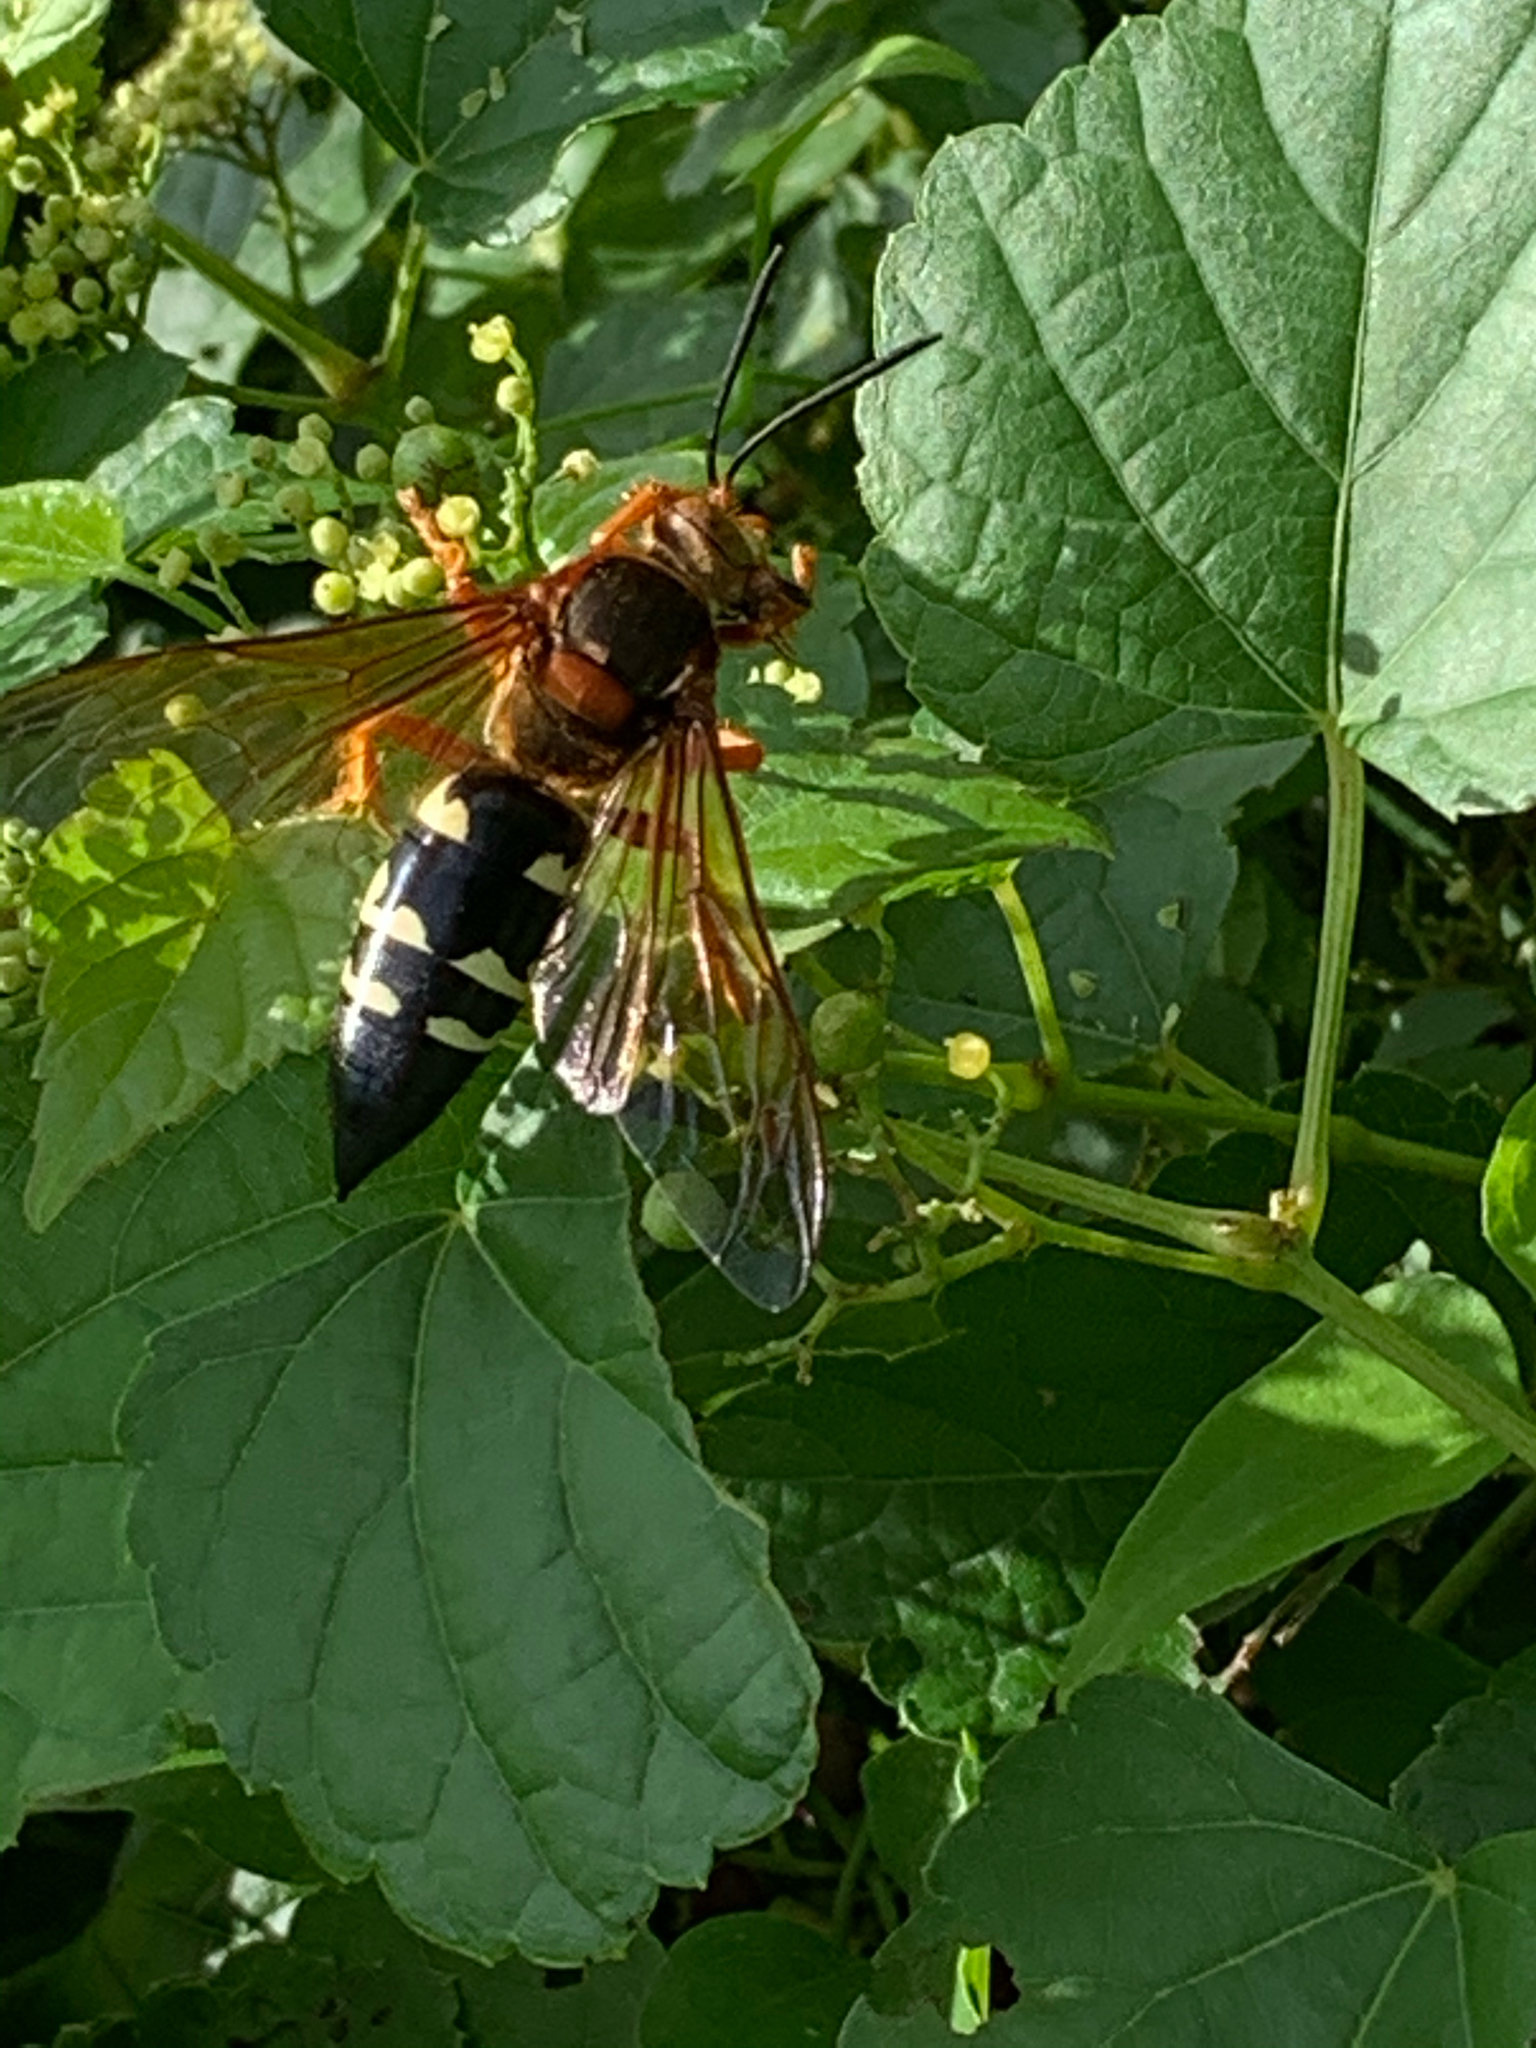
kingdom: Animalia
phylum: Arthropoda
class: Insecta
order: Hymenoptera
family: Crabronidae
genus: Sphecius
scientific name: Sphecius speciosus
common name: Cicada killer
